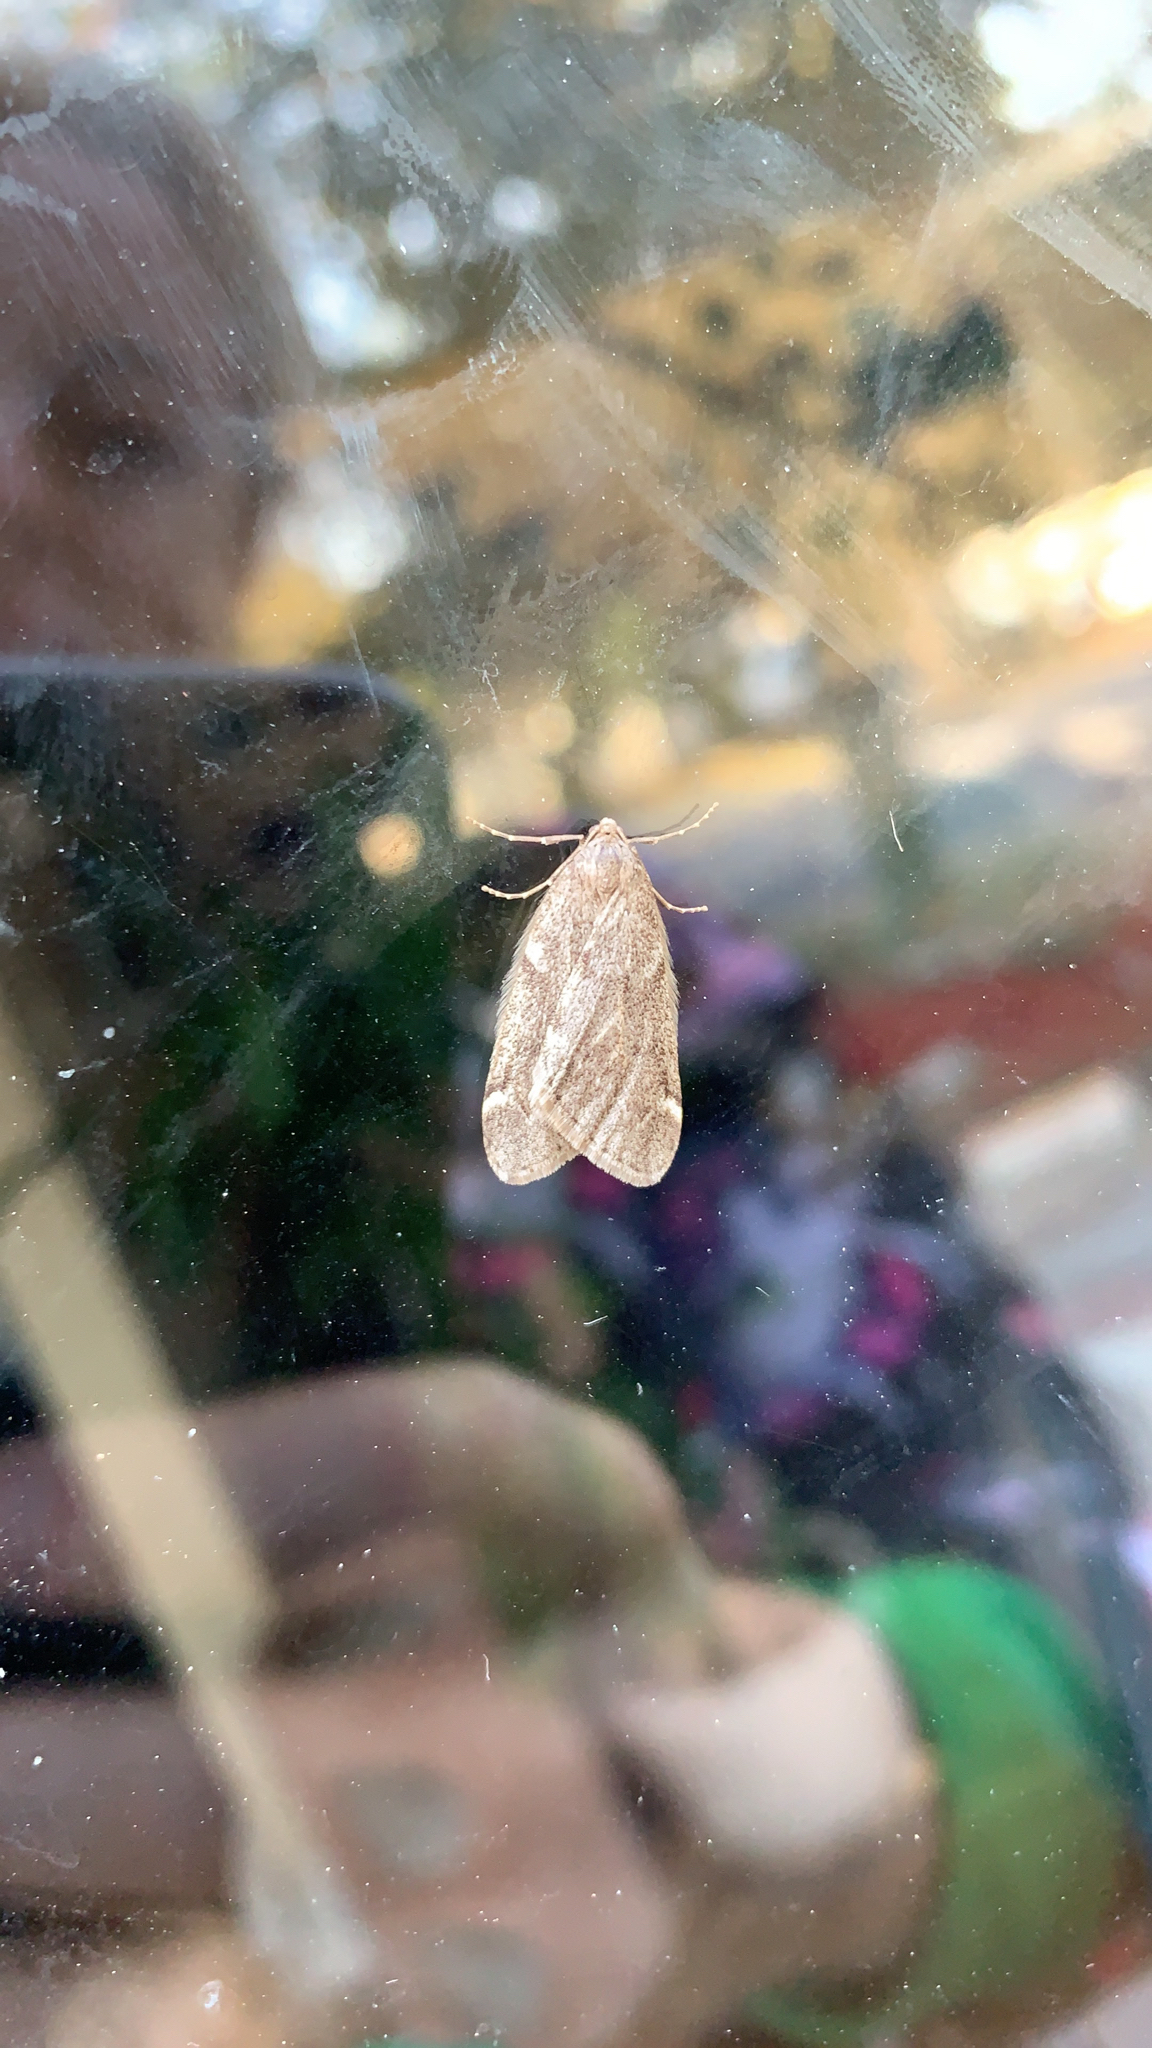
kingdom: Animalia
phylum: Arthropoda
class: Insecta
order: Lepidoptera
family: Geometridae
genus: Alsophila
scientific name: Alsophila pometaria
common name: Fall cankerworm
